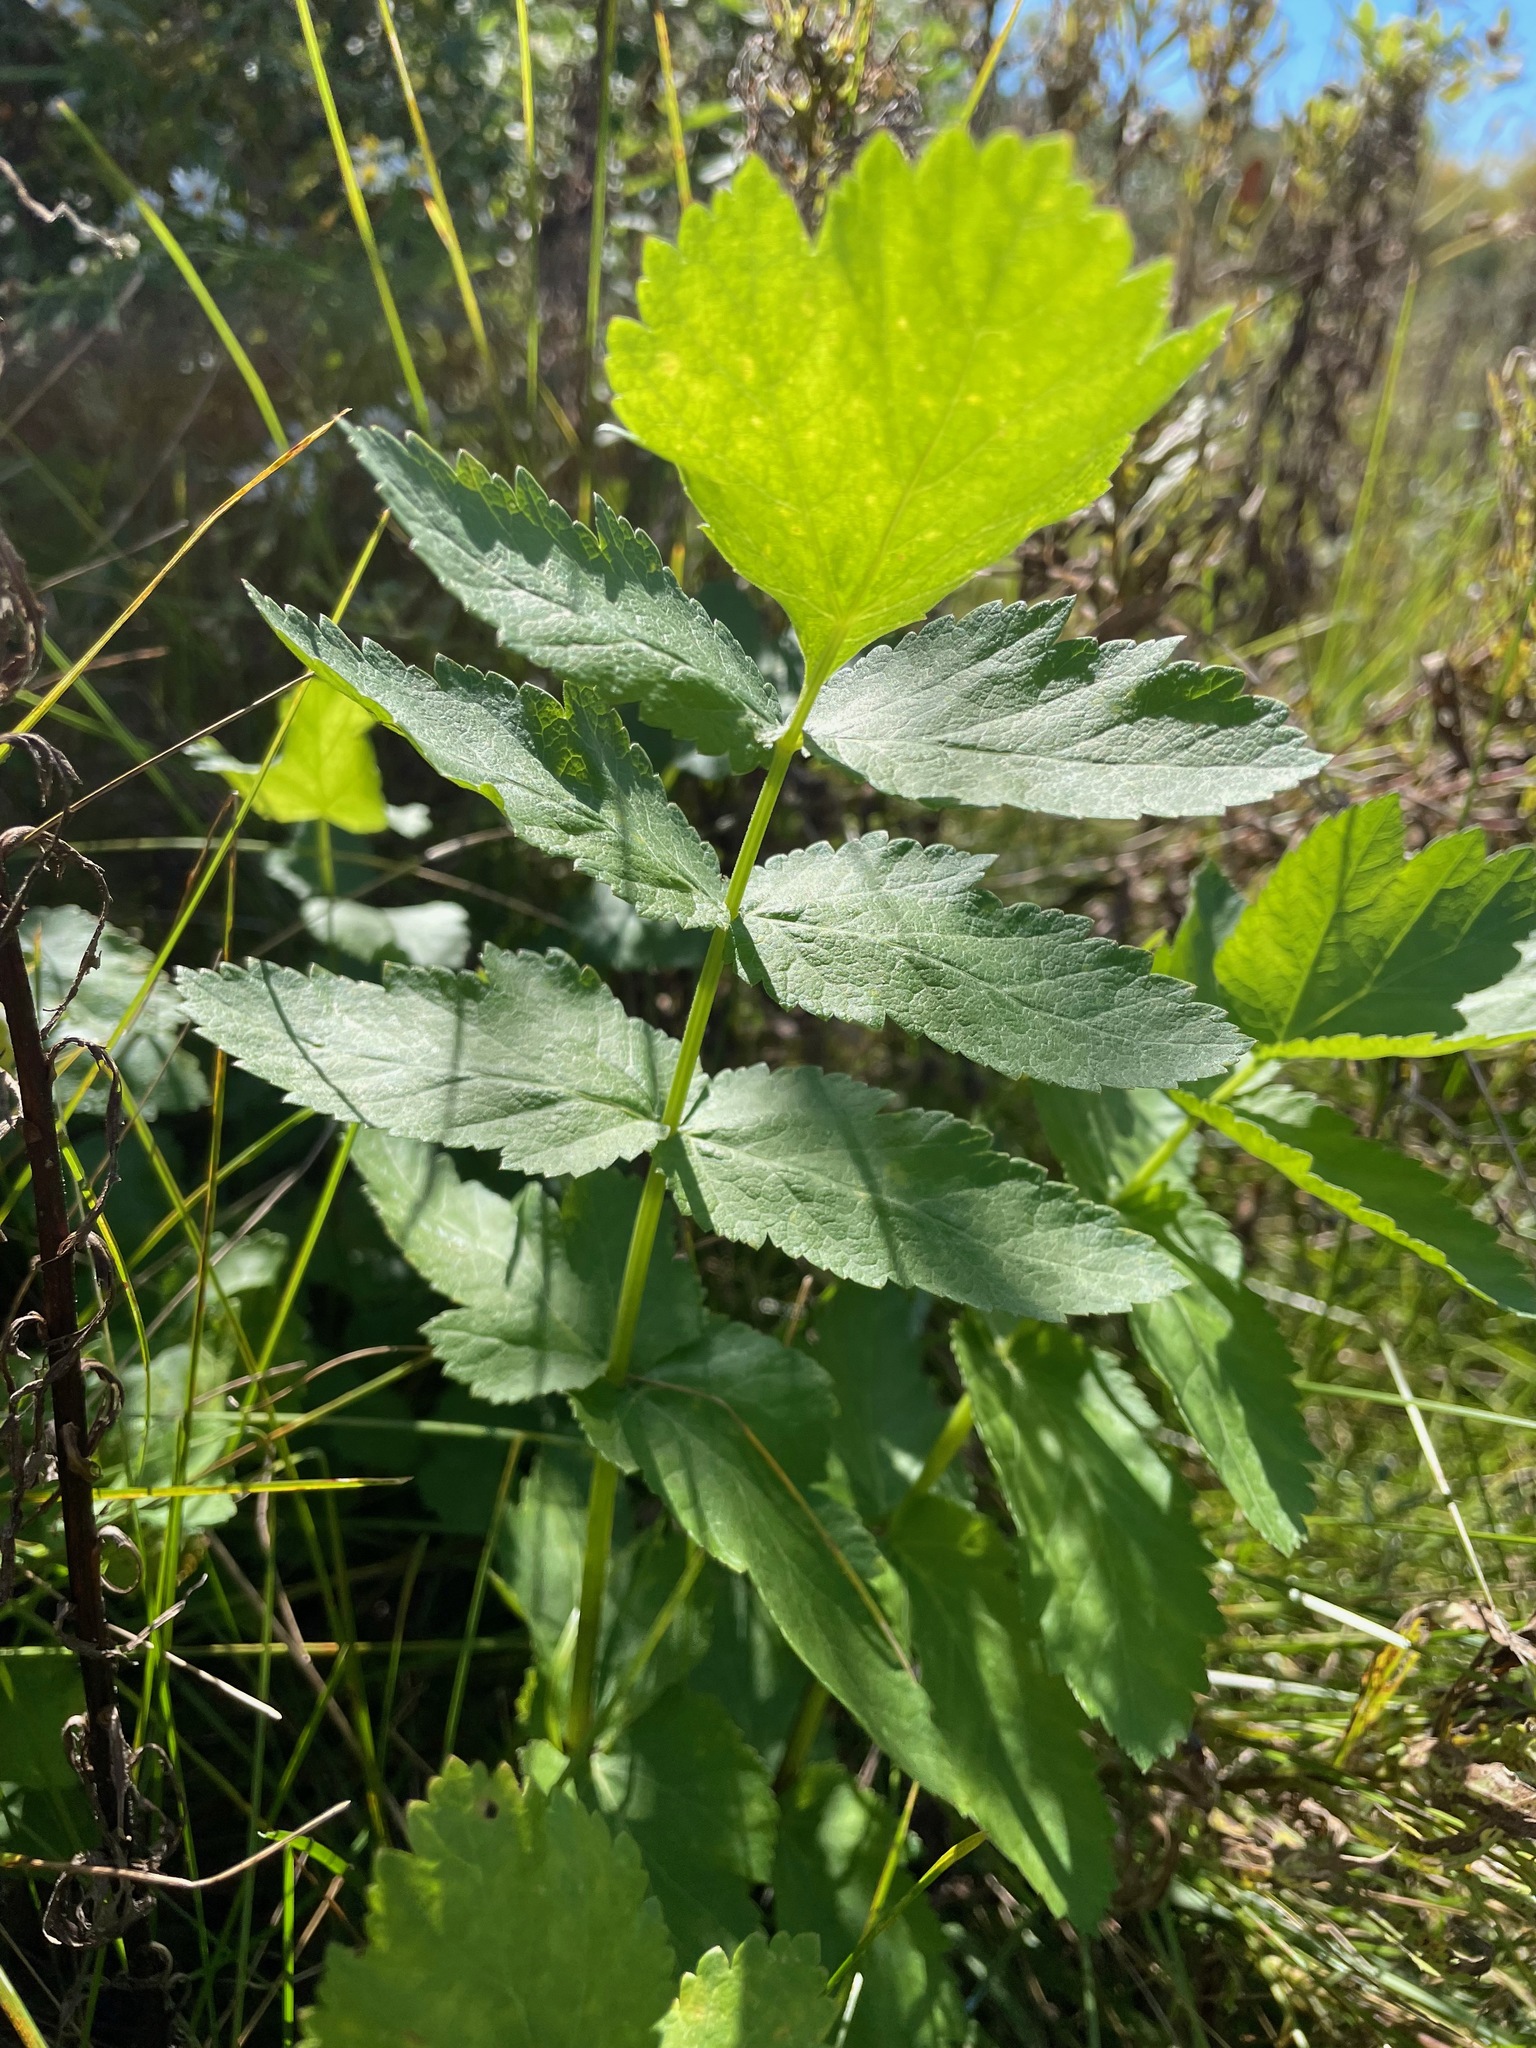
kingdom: Plantae
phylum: Tracheophyta
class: Magnoliopsida
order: Apiales
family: Apiaceae
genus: Pastinaca
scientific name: Pastinaca sativa
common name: Wild parsnip
